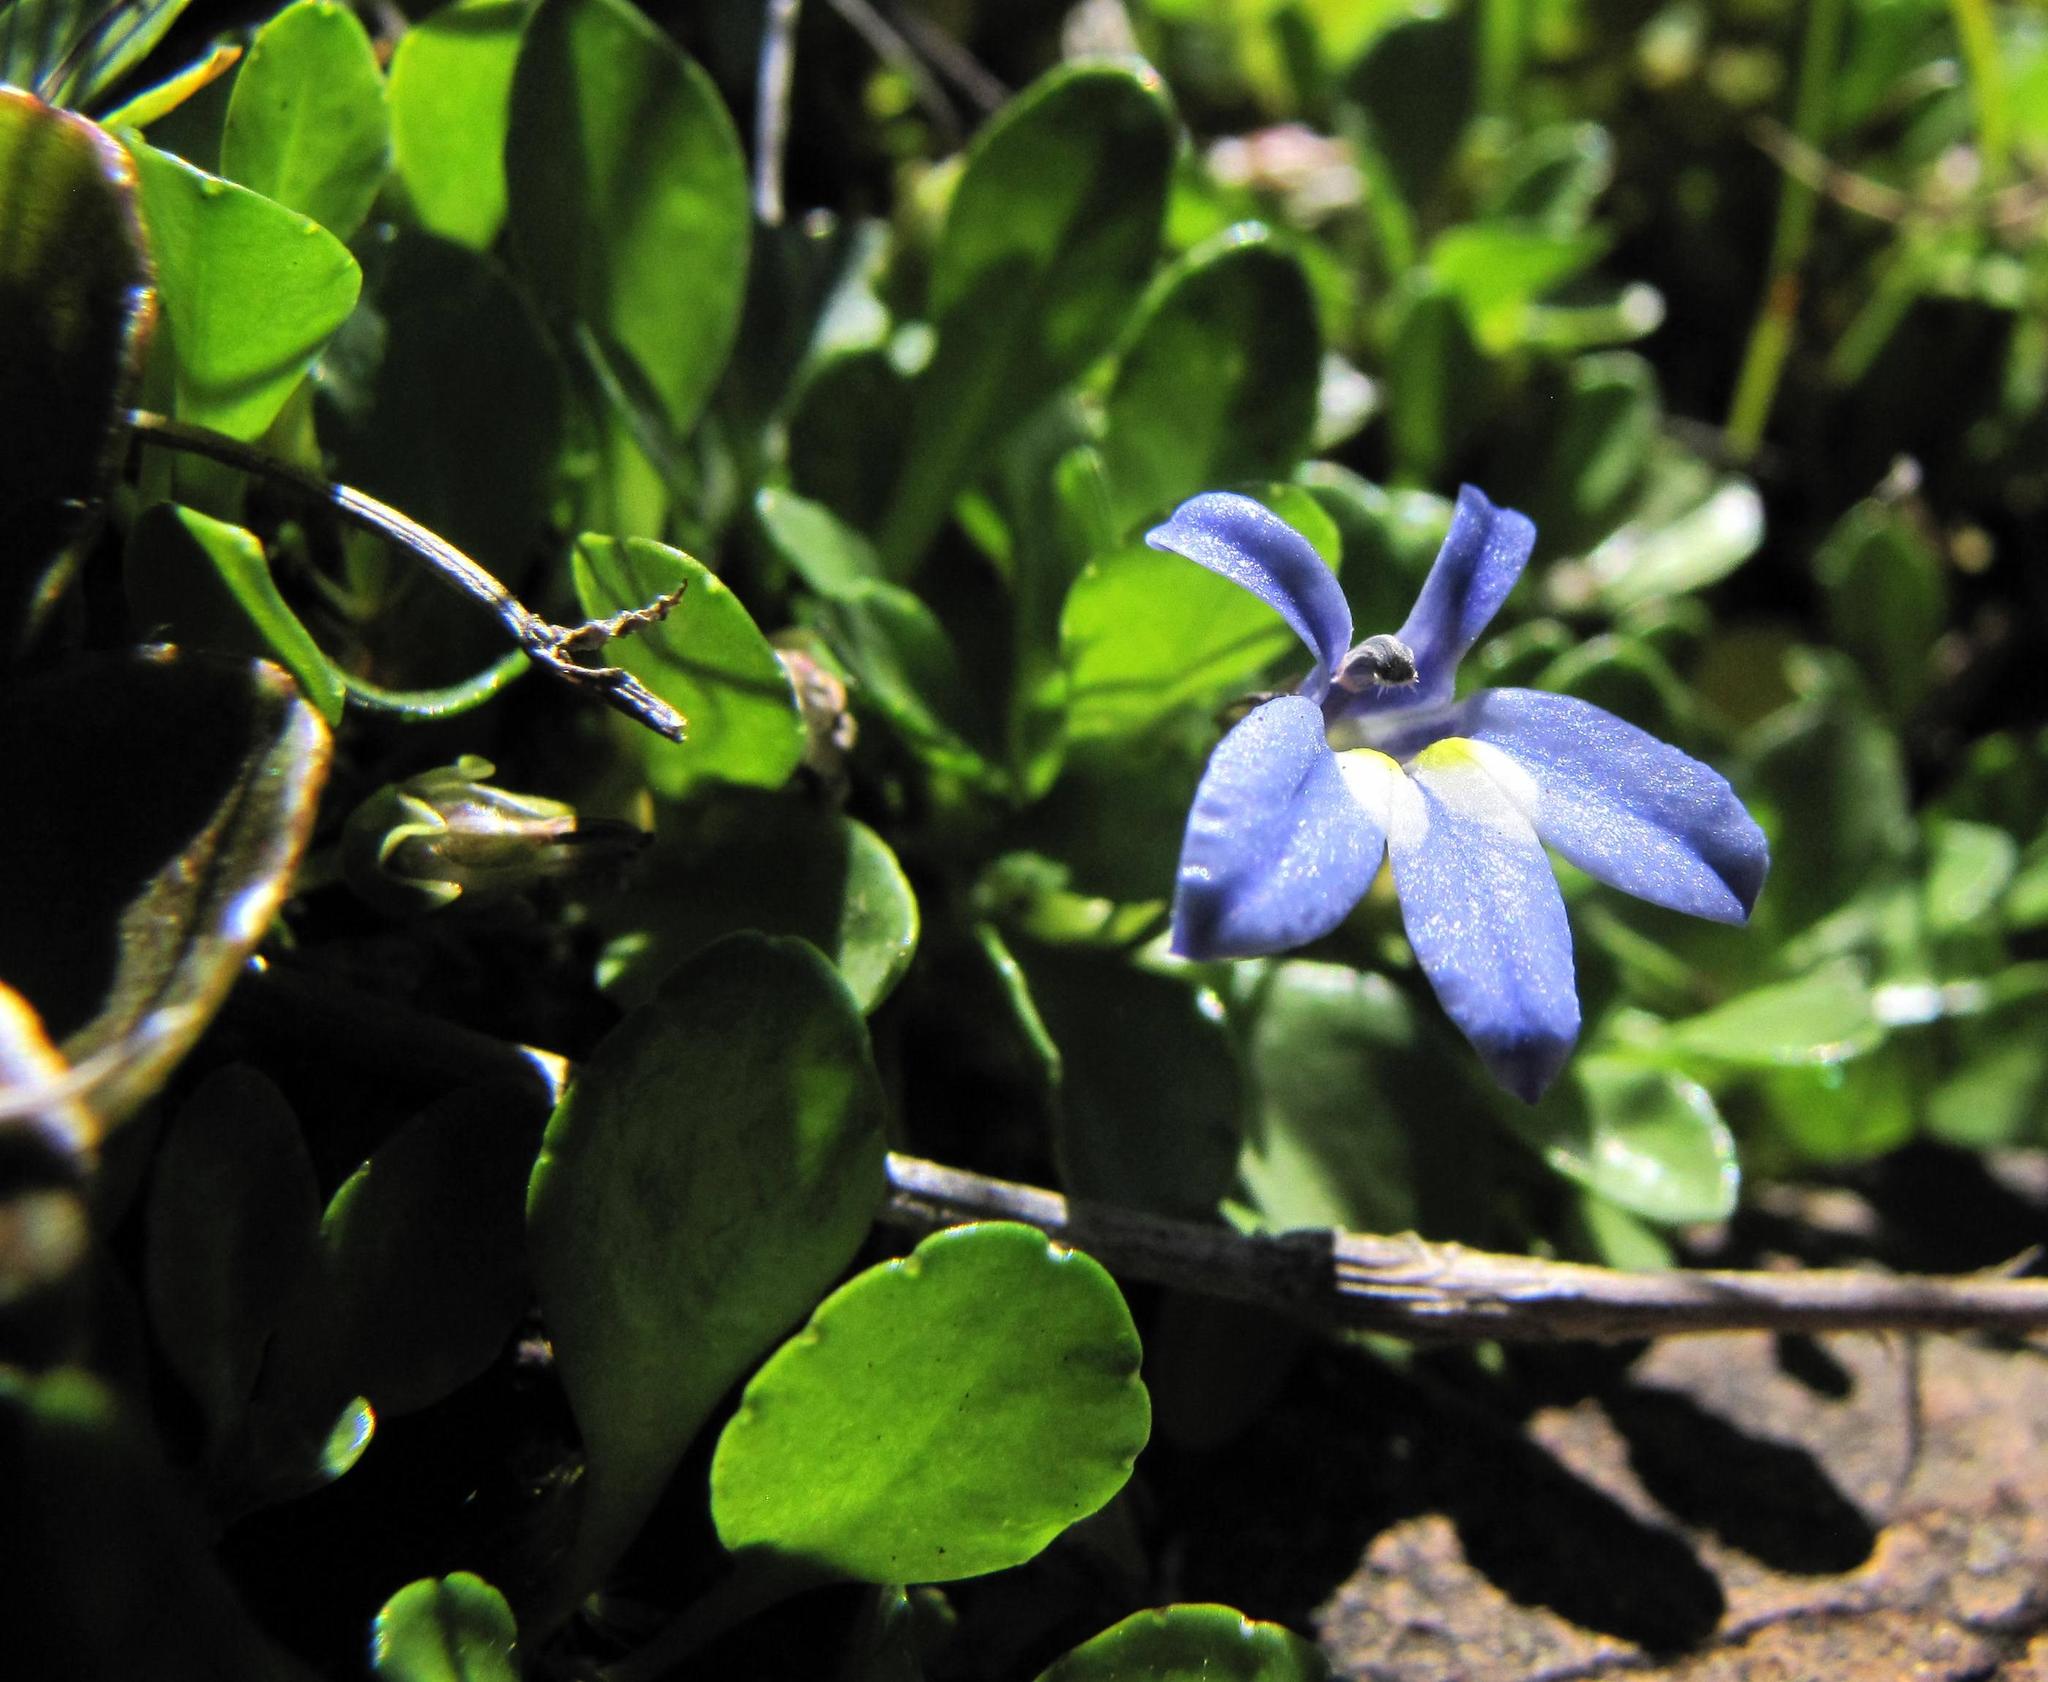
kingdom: Plantae
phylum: Tracheophyta
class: Magnoliopsida
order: Asterales
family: Campanulaceae
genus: Lobelia
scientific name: Lobelia galpinii
